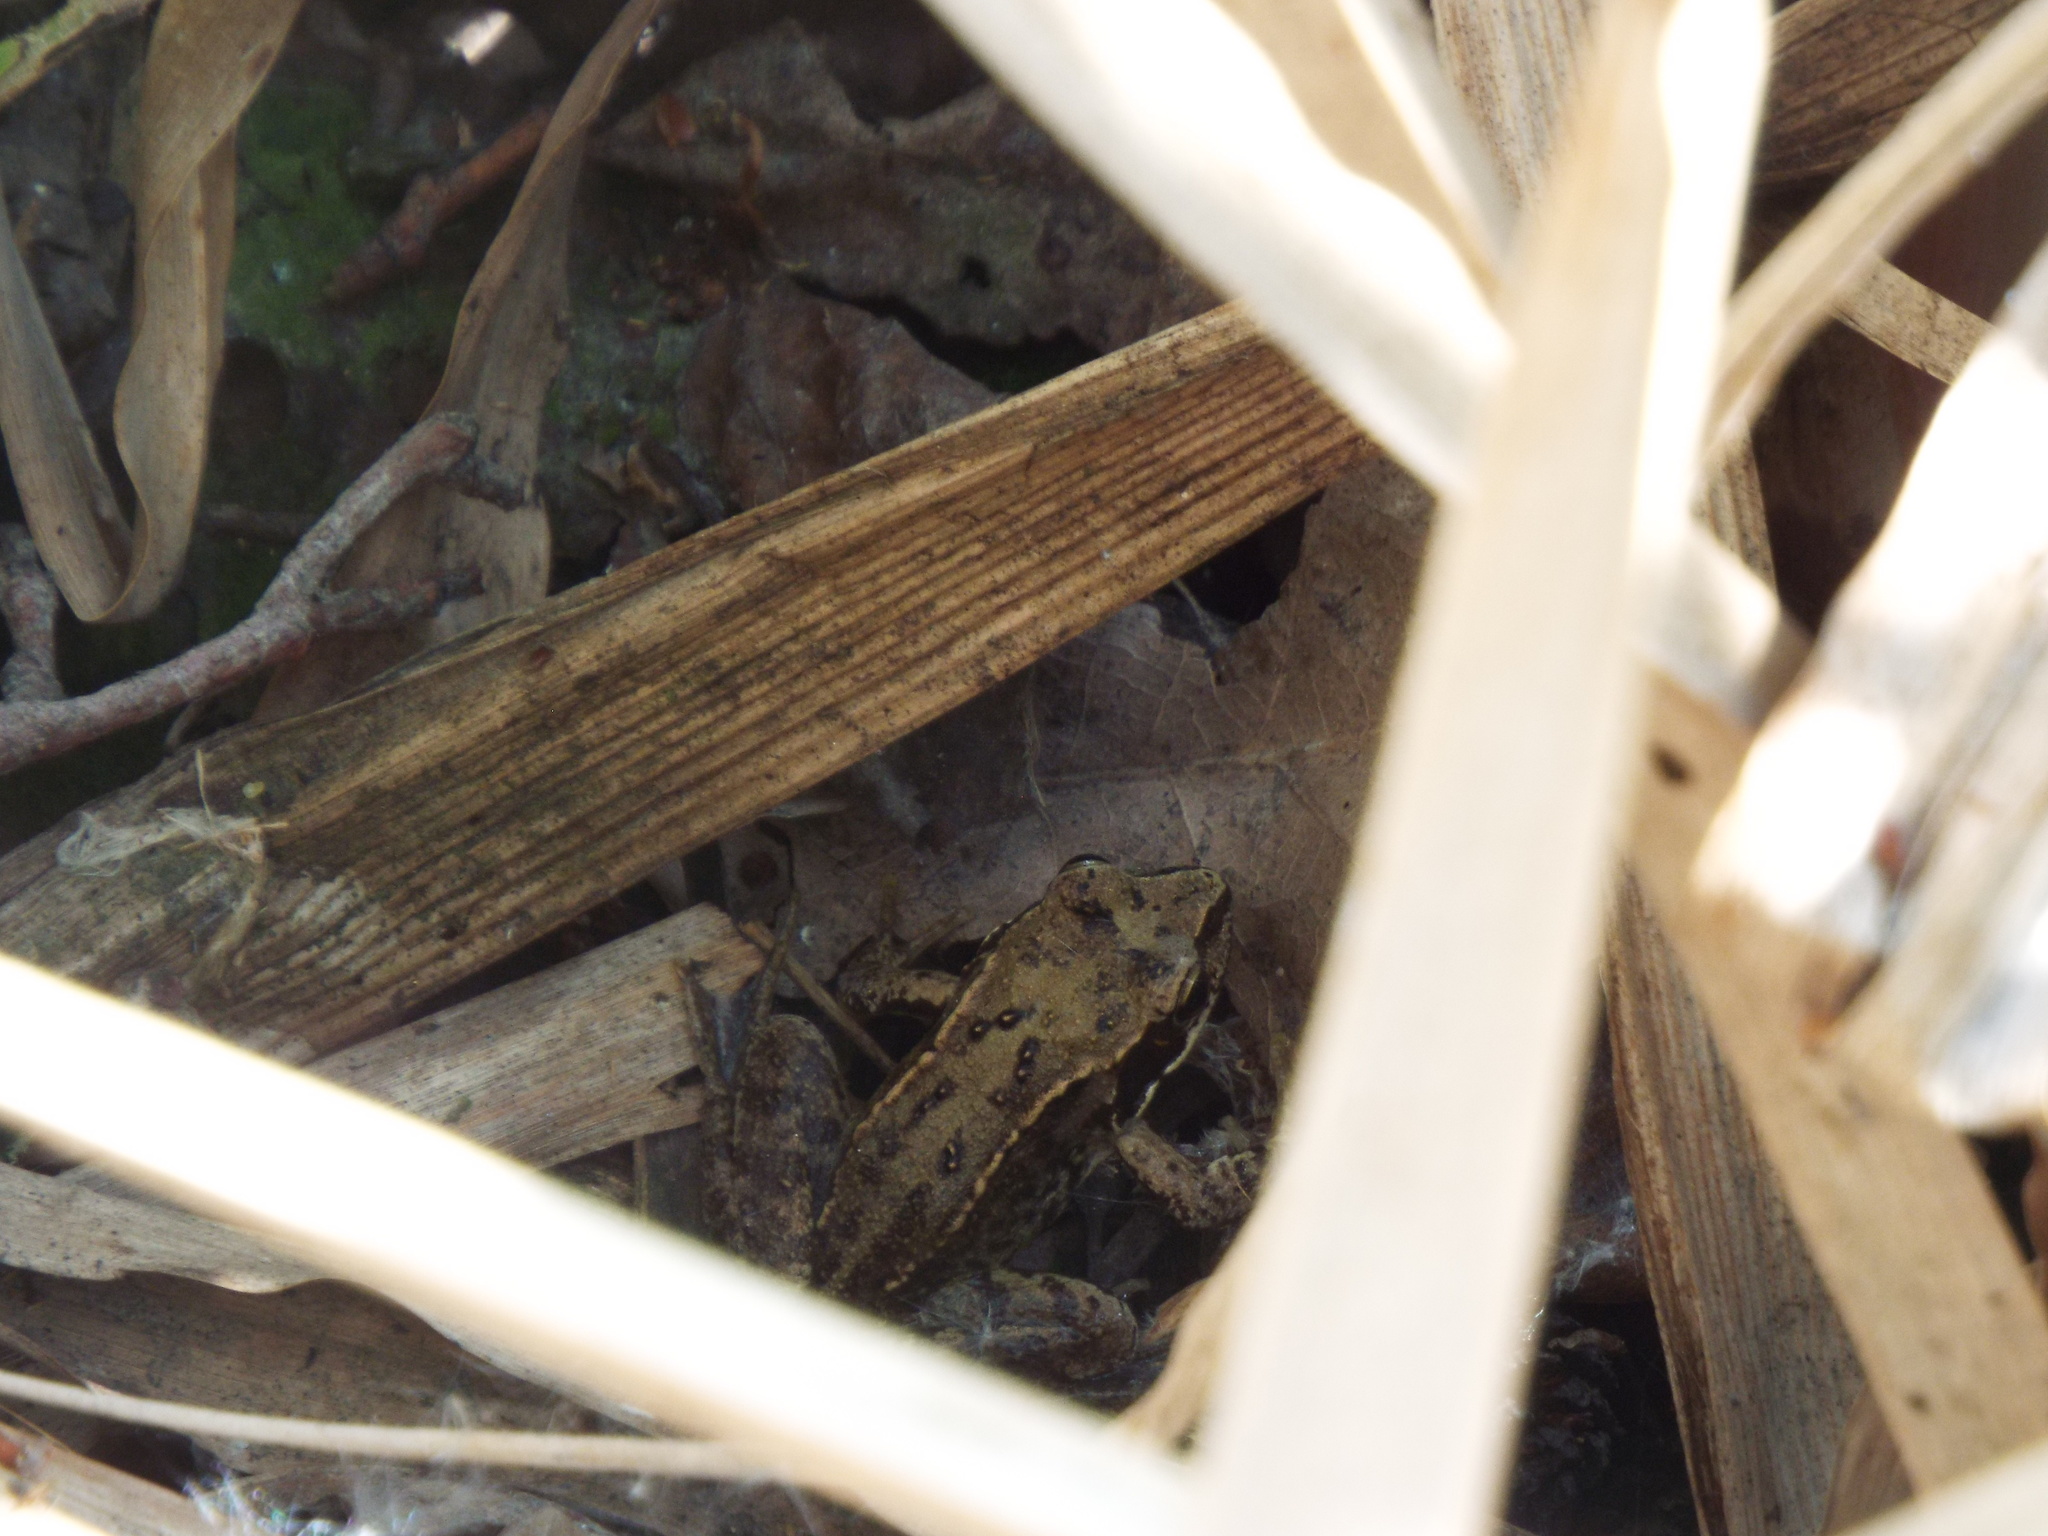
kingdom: Animalia
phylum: Chordata
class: Amphibia
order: Anura
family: Ranidae
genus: Rana
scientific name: Rana temporaria
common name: Common frog
